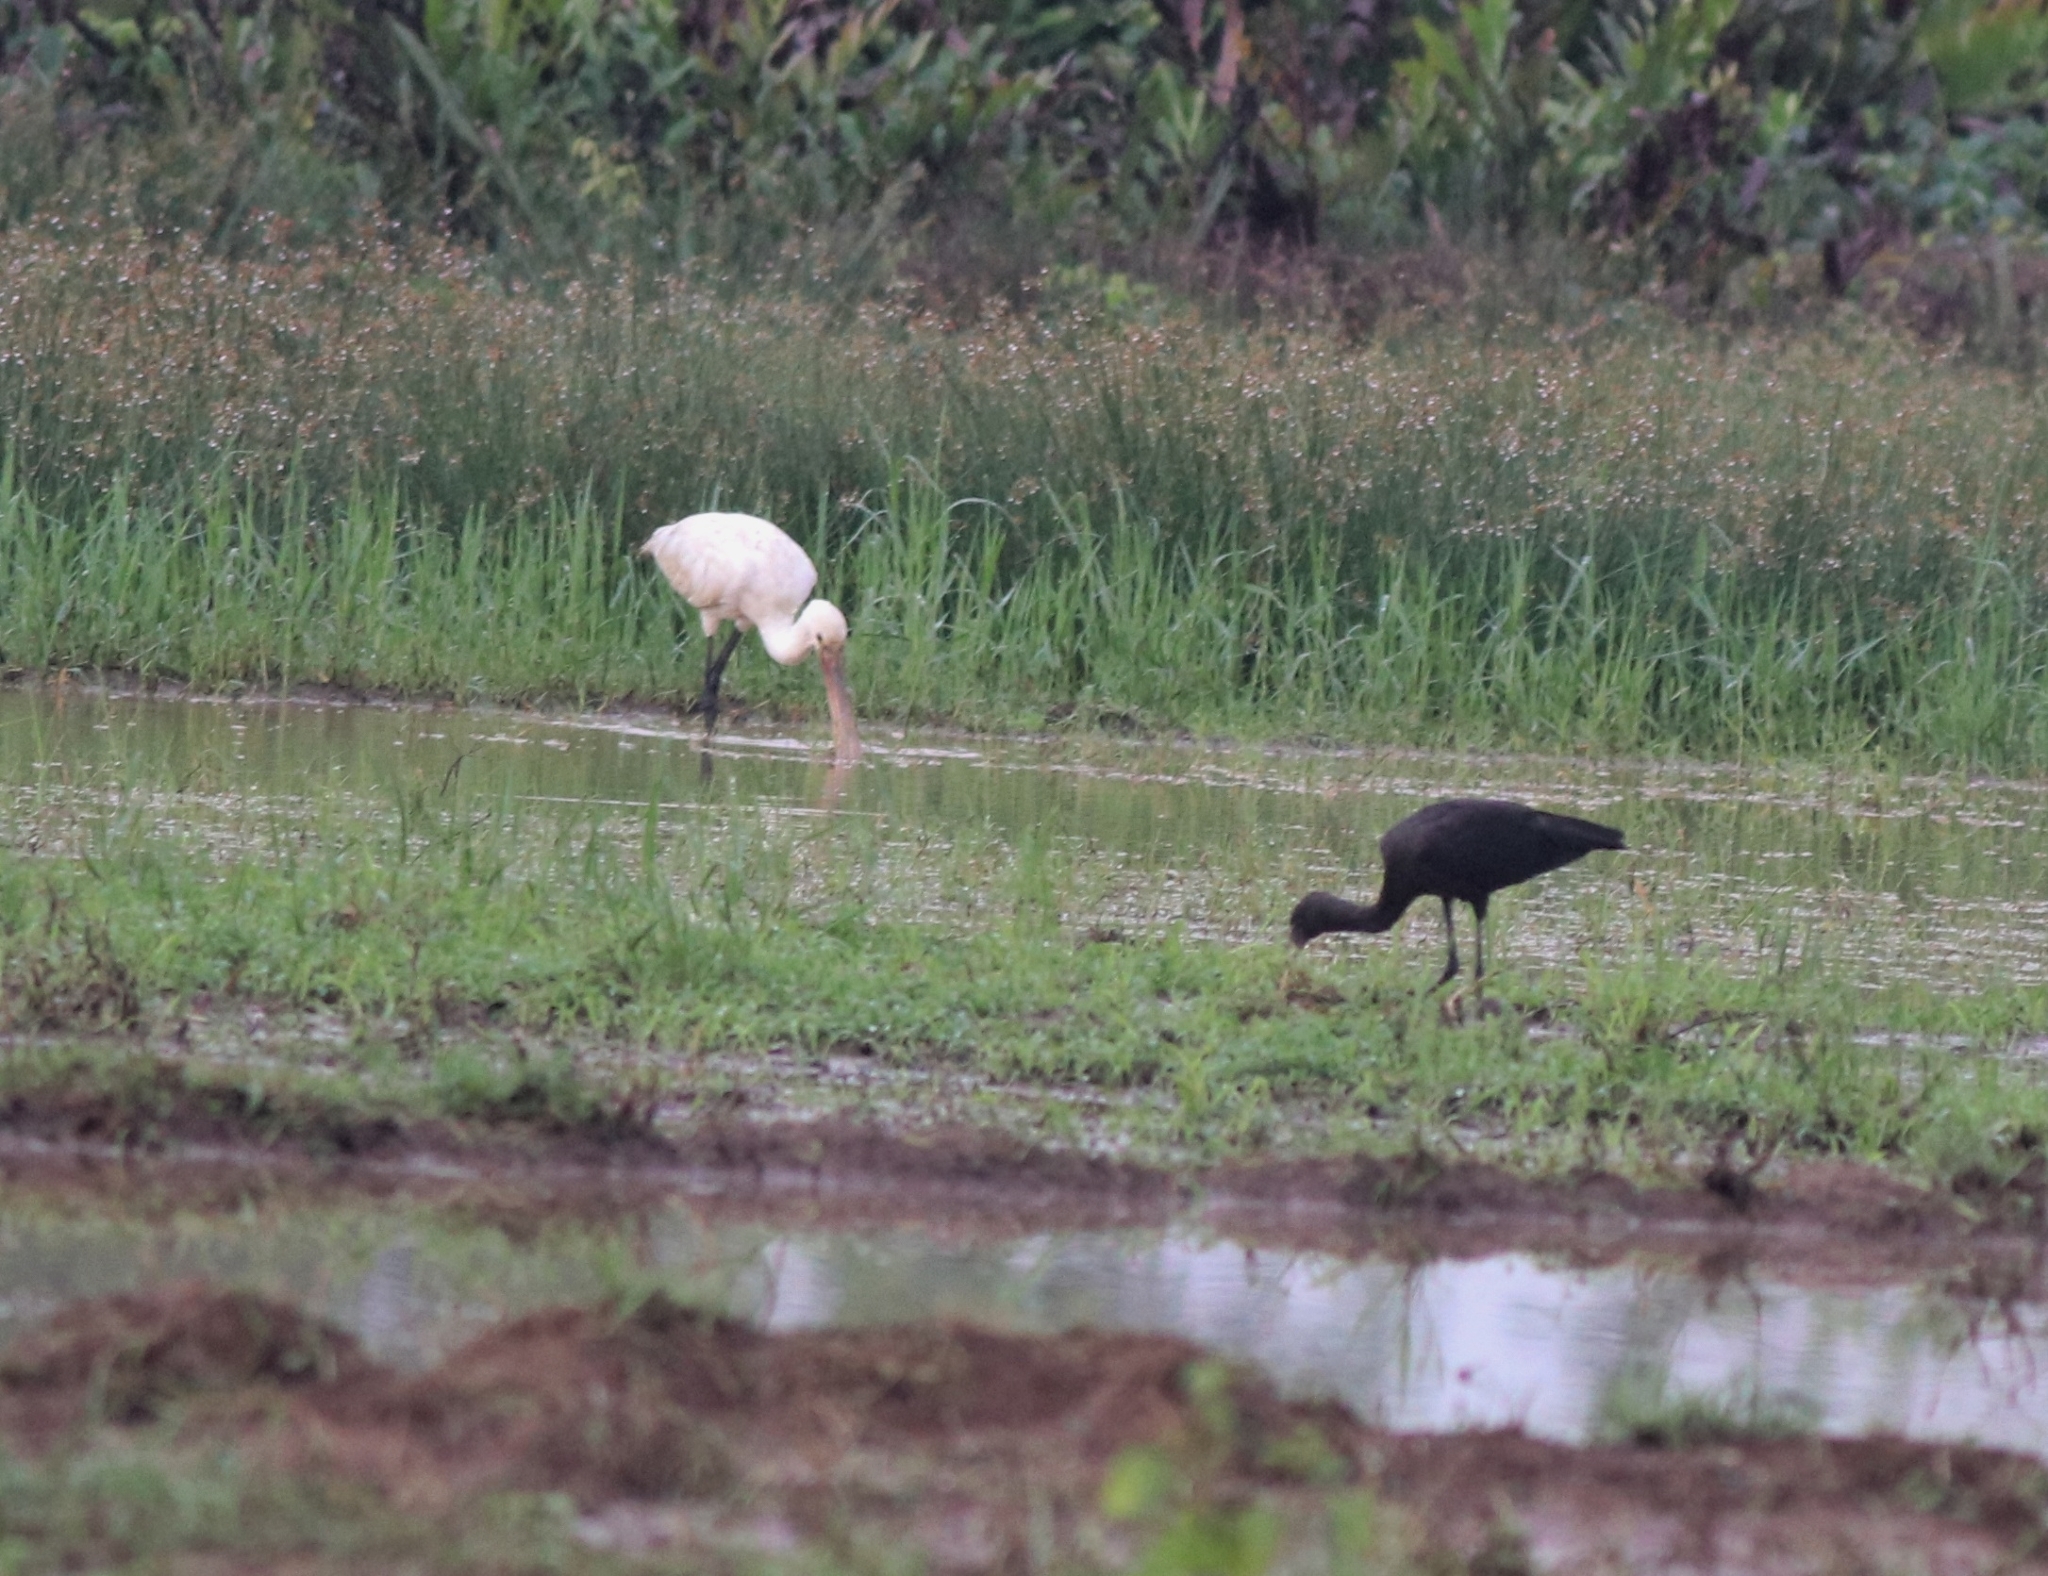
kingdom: Animalia
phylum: Chordata
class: Aves
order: Pelecaniformes
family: Threskiornithidae
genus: Plegadis
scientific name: Plegadis falcinellus
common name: Glossy ibis
